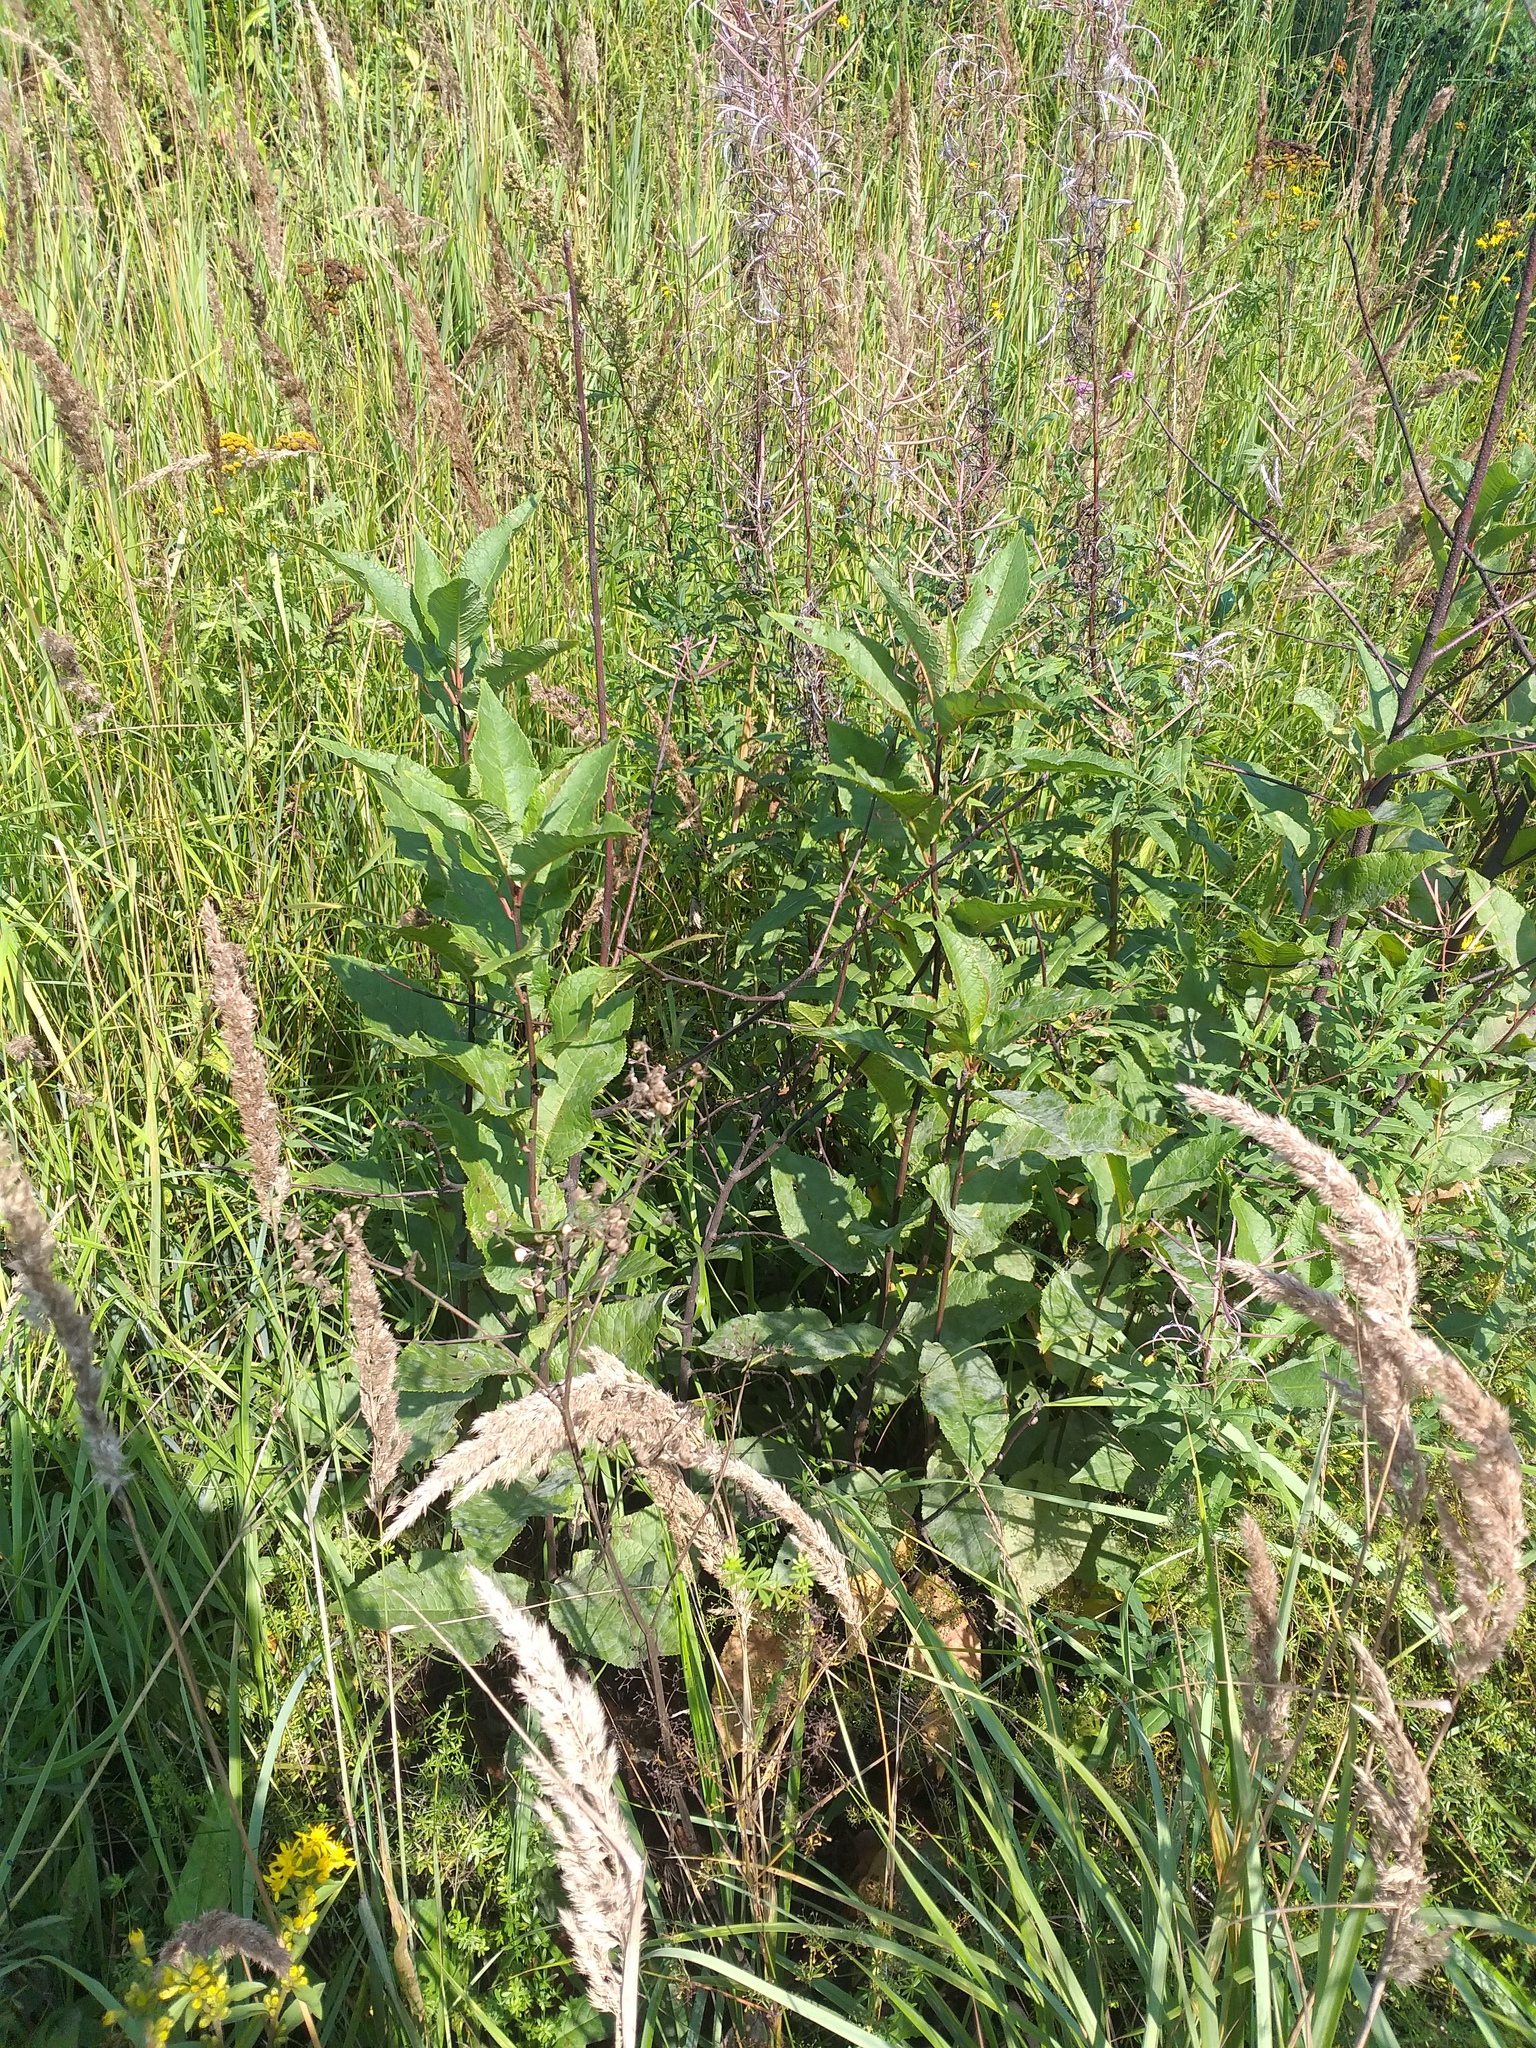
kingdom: Plantae
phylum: Tracheophyta
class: Magnoliopsida
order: Rosales
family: Rosaceae
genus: Prunus
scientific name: Prunus padus
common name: Bird cherry
